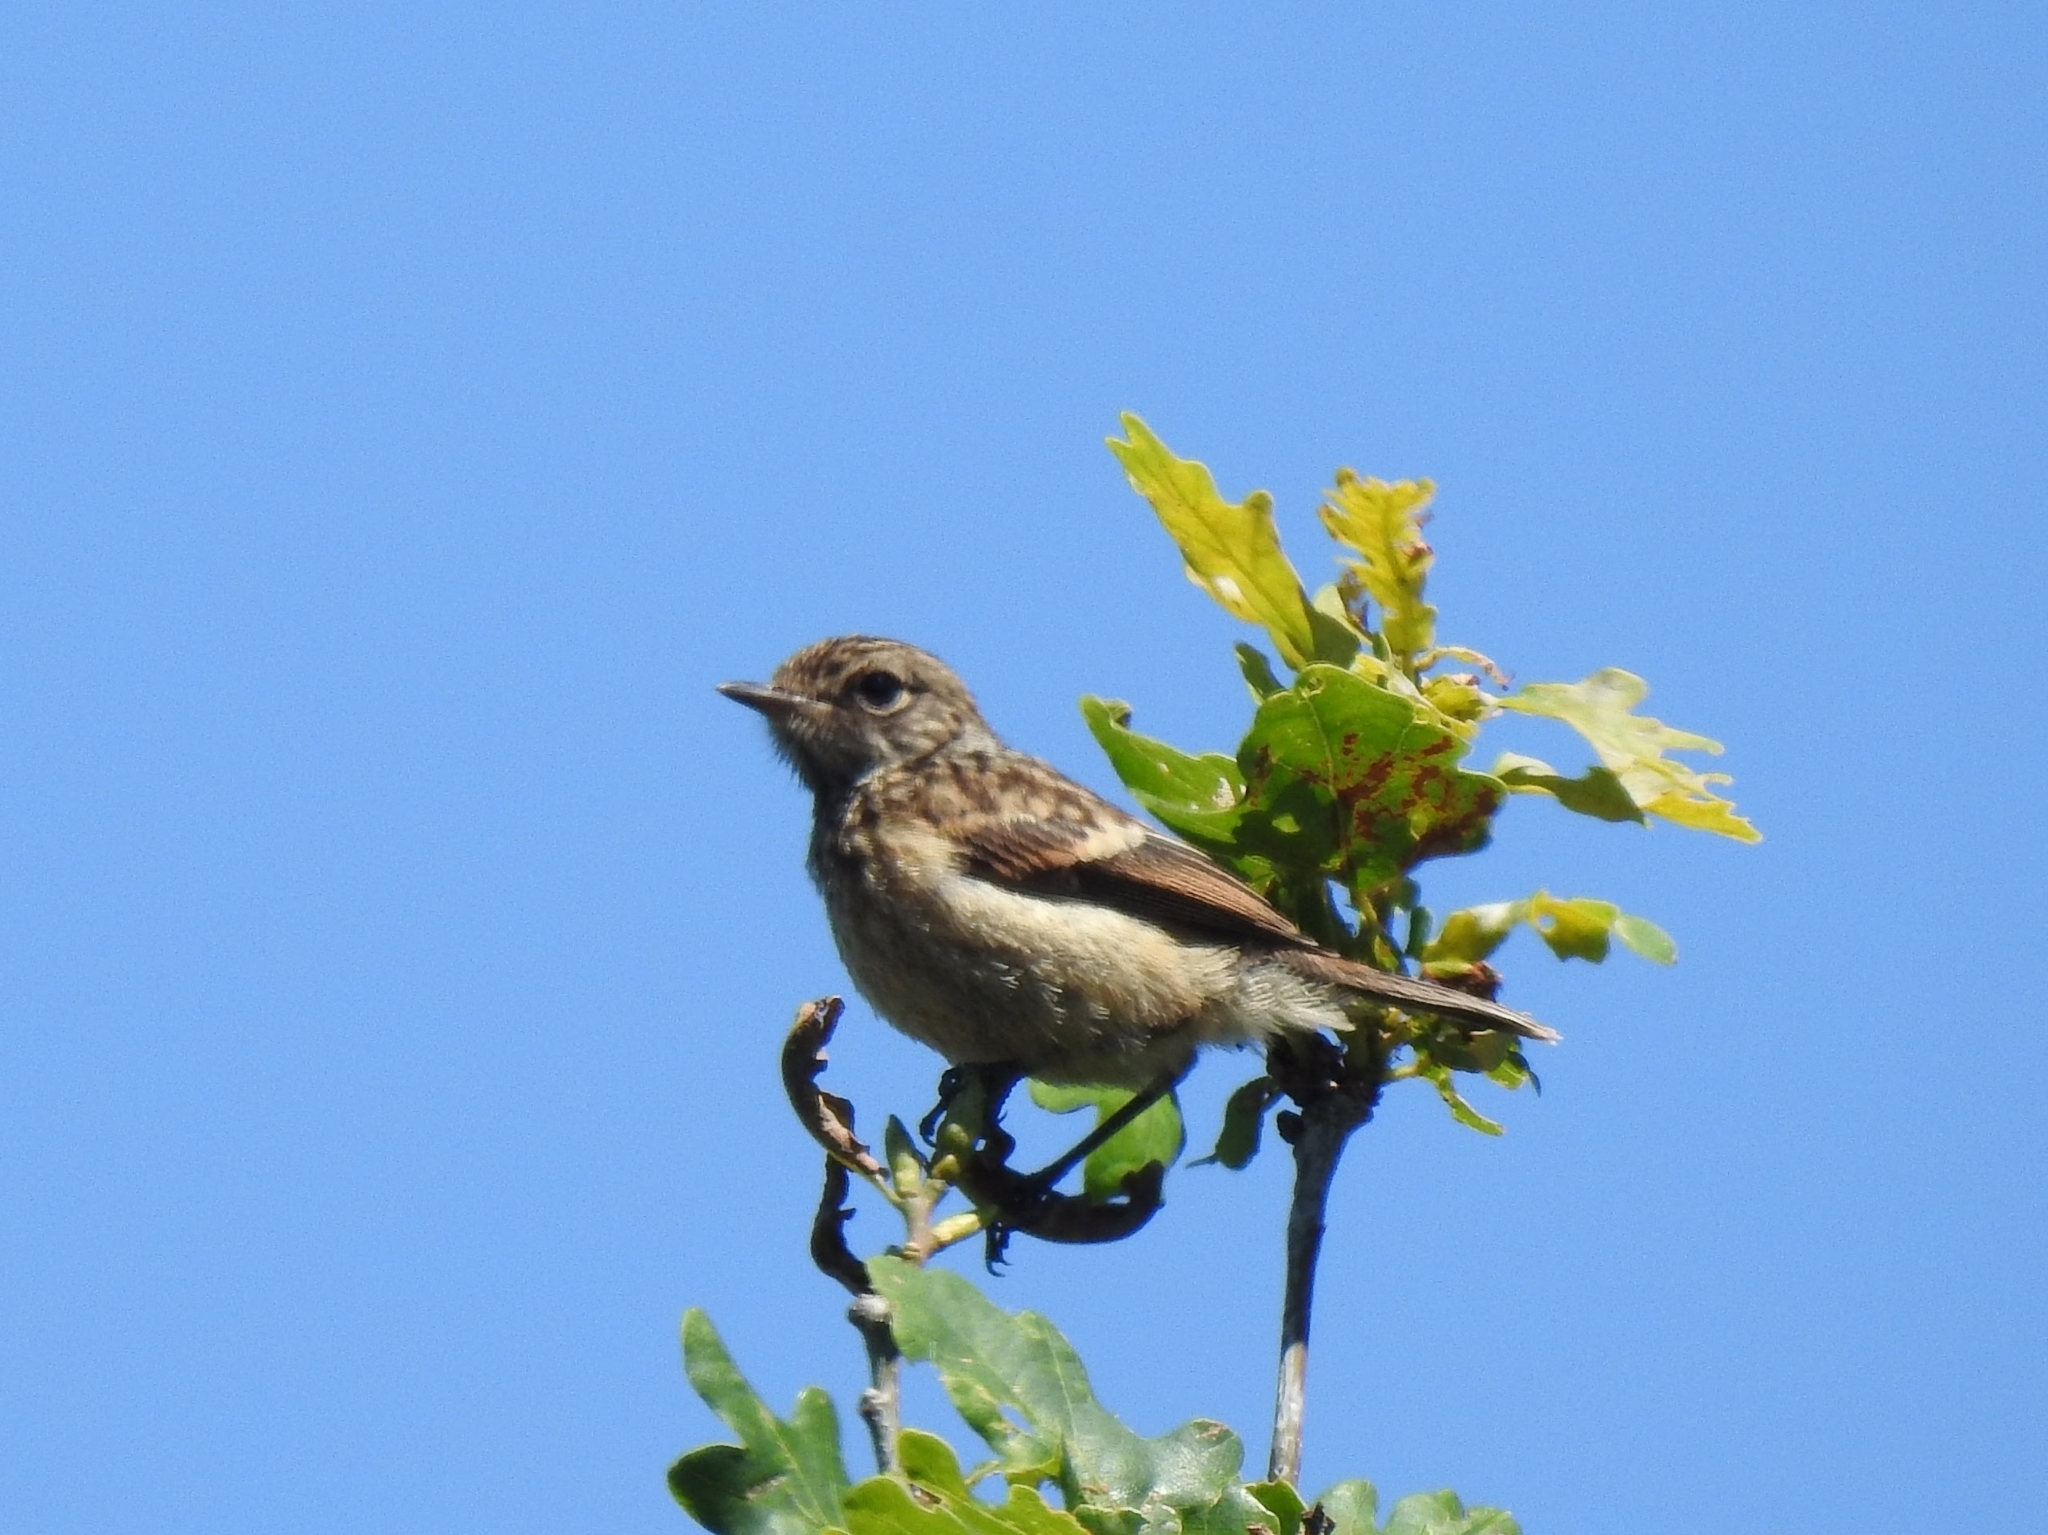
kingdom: Animalia
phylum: Chordata
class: Aves
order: Passeriformes
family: Muscicapidae
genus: Saxicola
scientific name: Saxicola rubicola
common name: European stonechat
